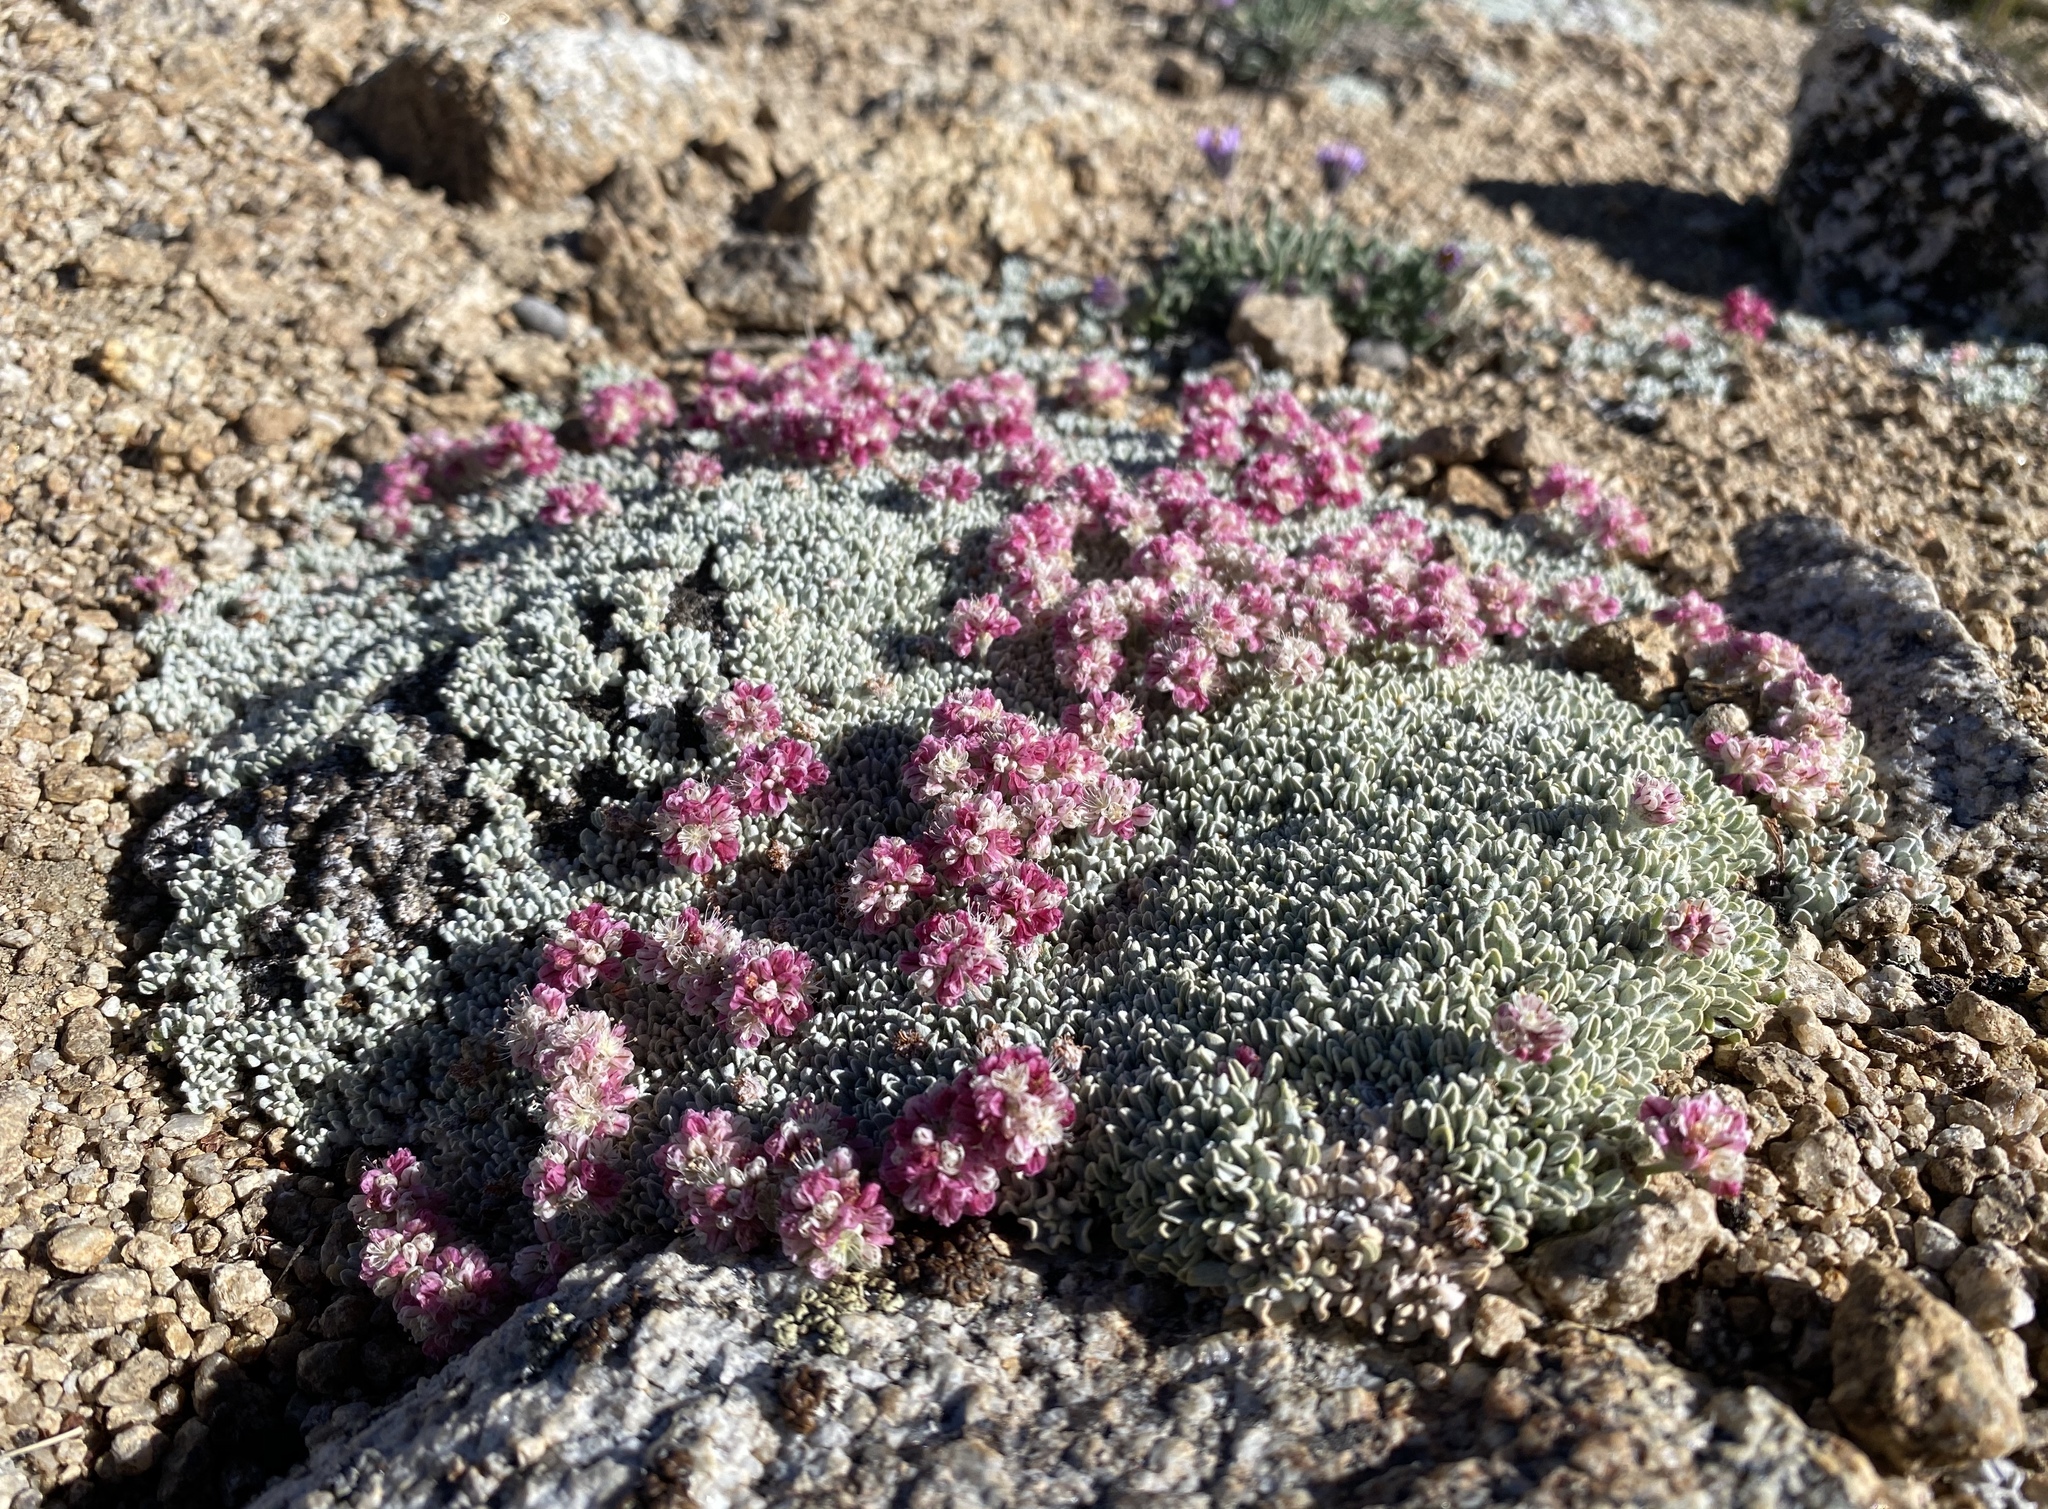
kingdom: Plantae
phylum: Tracheophyta
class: Magnoliopsida
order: Caryophyllales
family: Polygonaceae
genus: Eriogonum
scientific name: Eriogonum ovalifolium
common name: Cushion buckwheat
